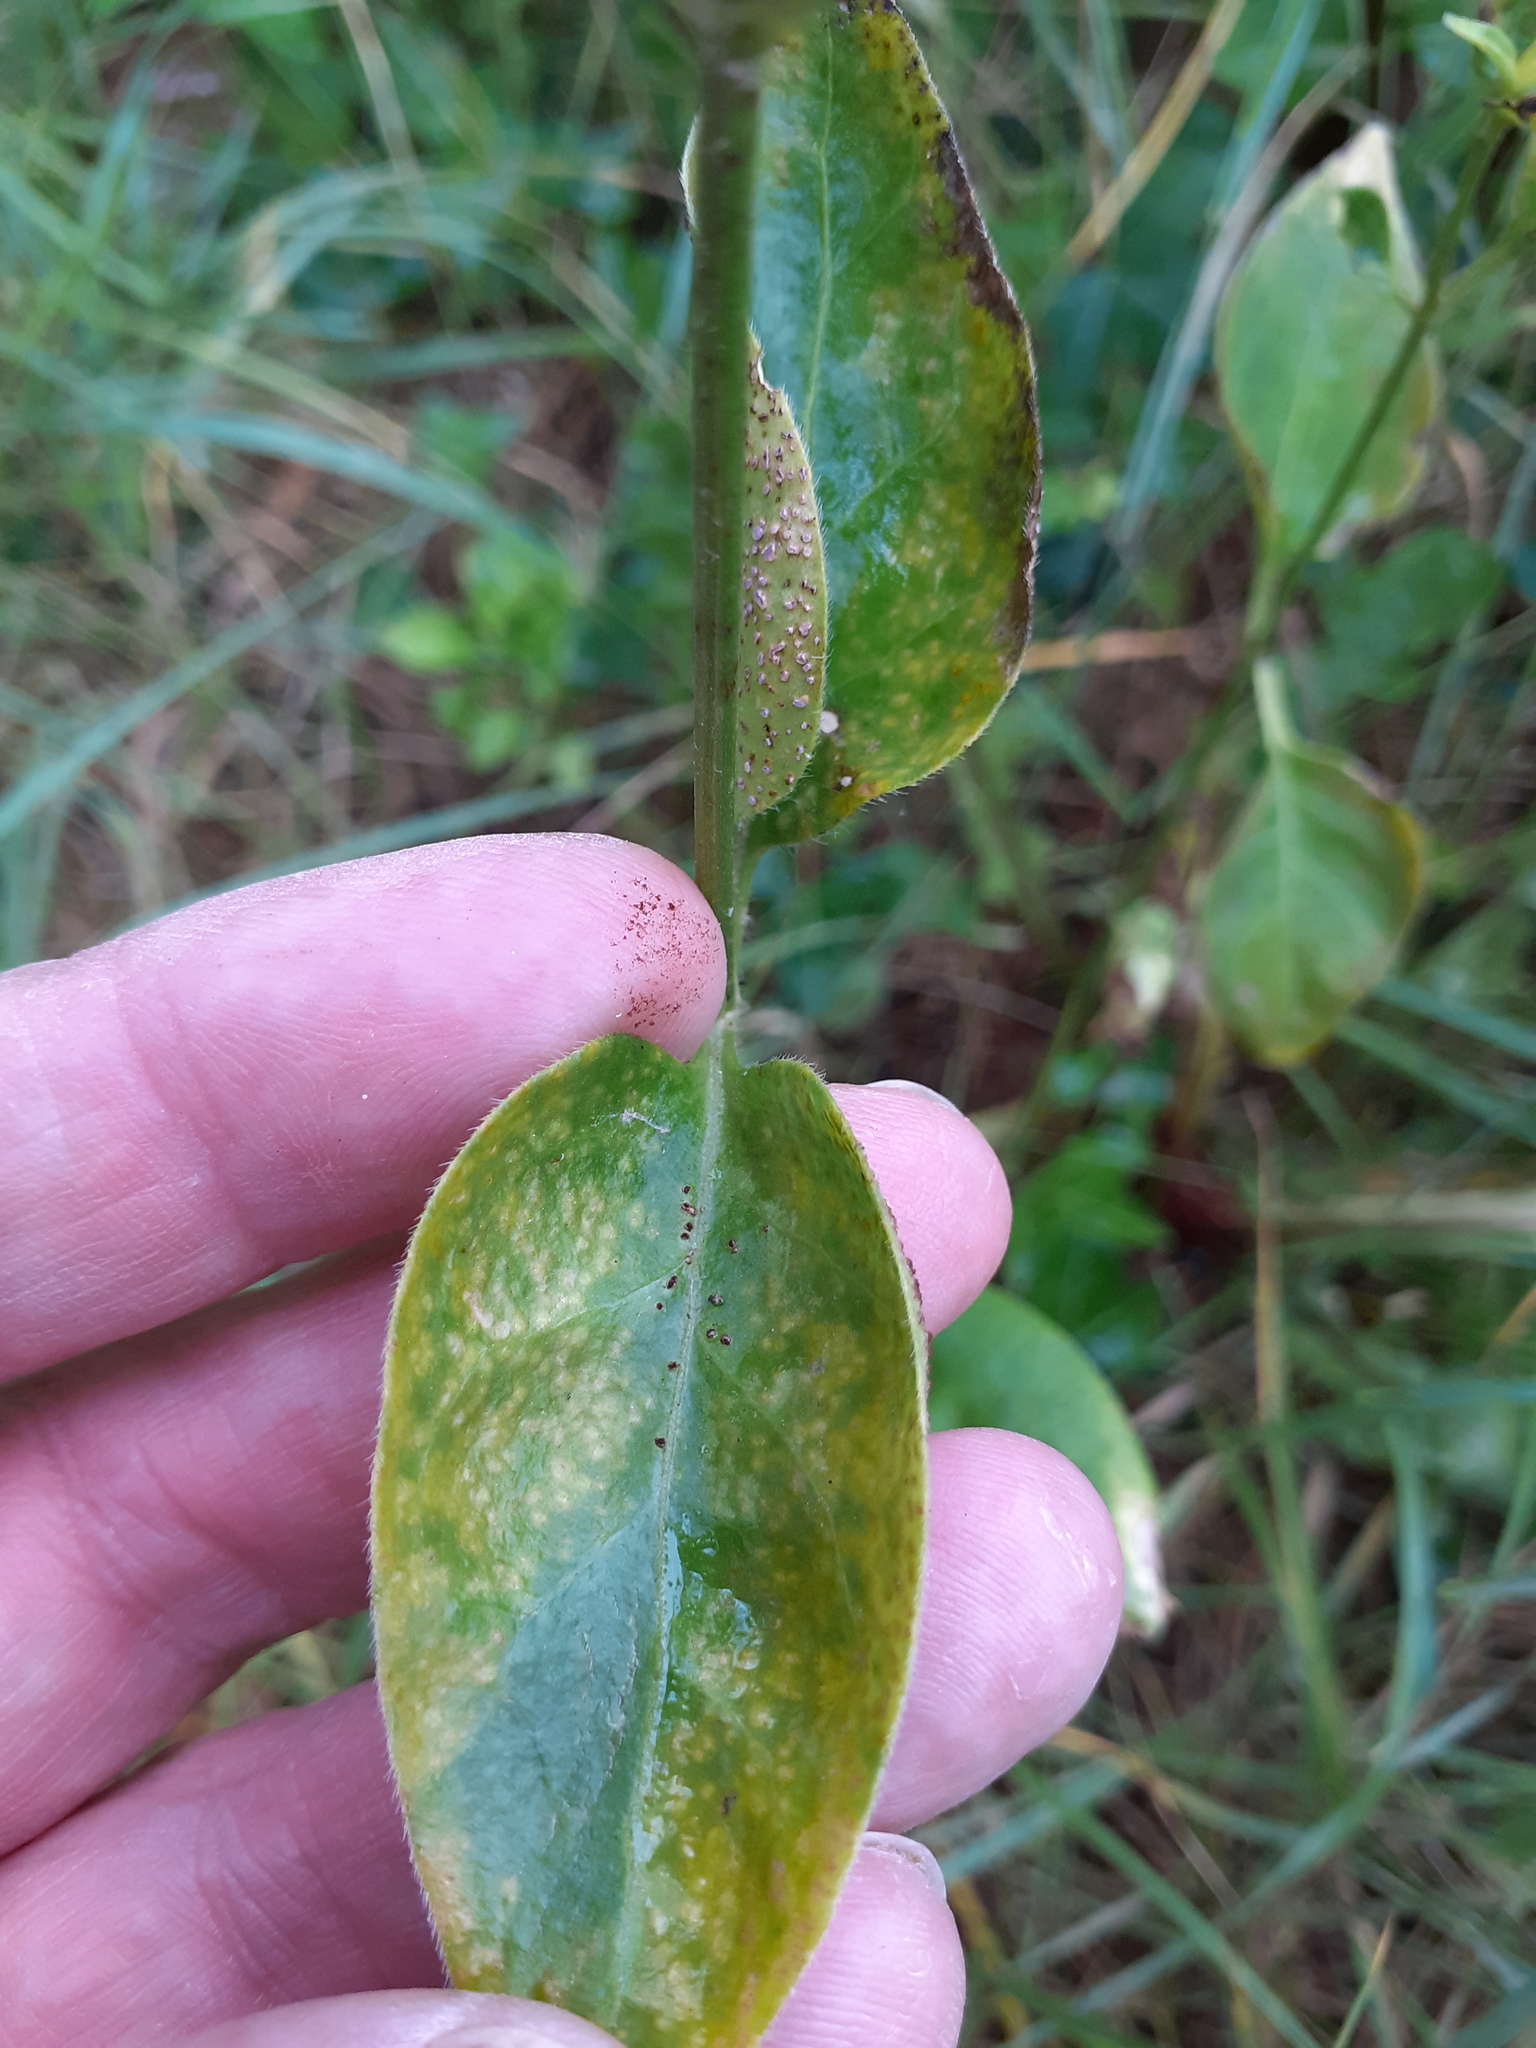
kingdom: Plantae
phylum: Tracheophyta
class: Magnoliopsida
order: Gentianales
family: Apocynaceae
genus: Vinca
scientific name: Vinca major
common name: Greater periwinkle
